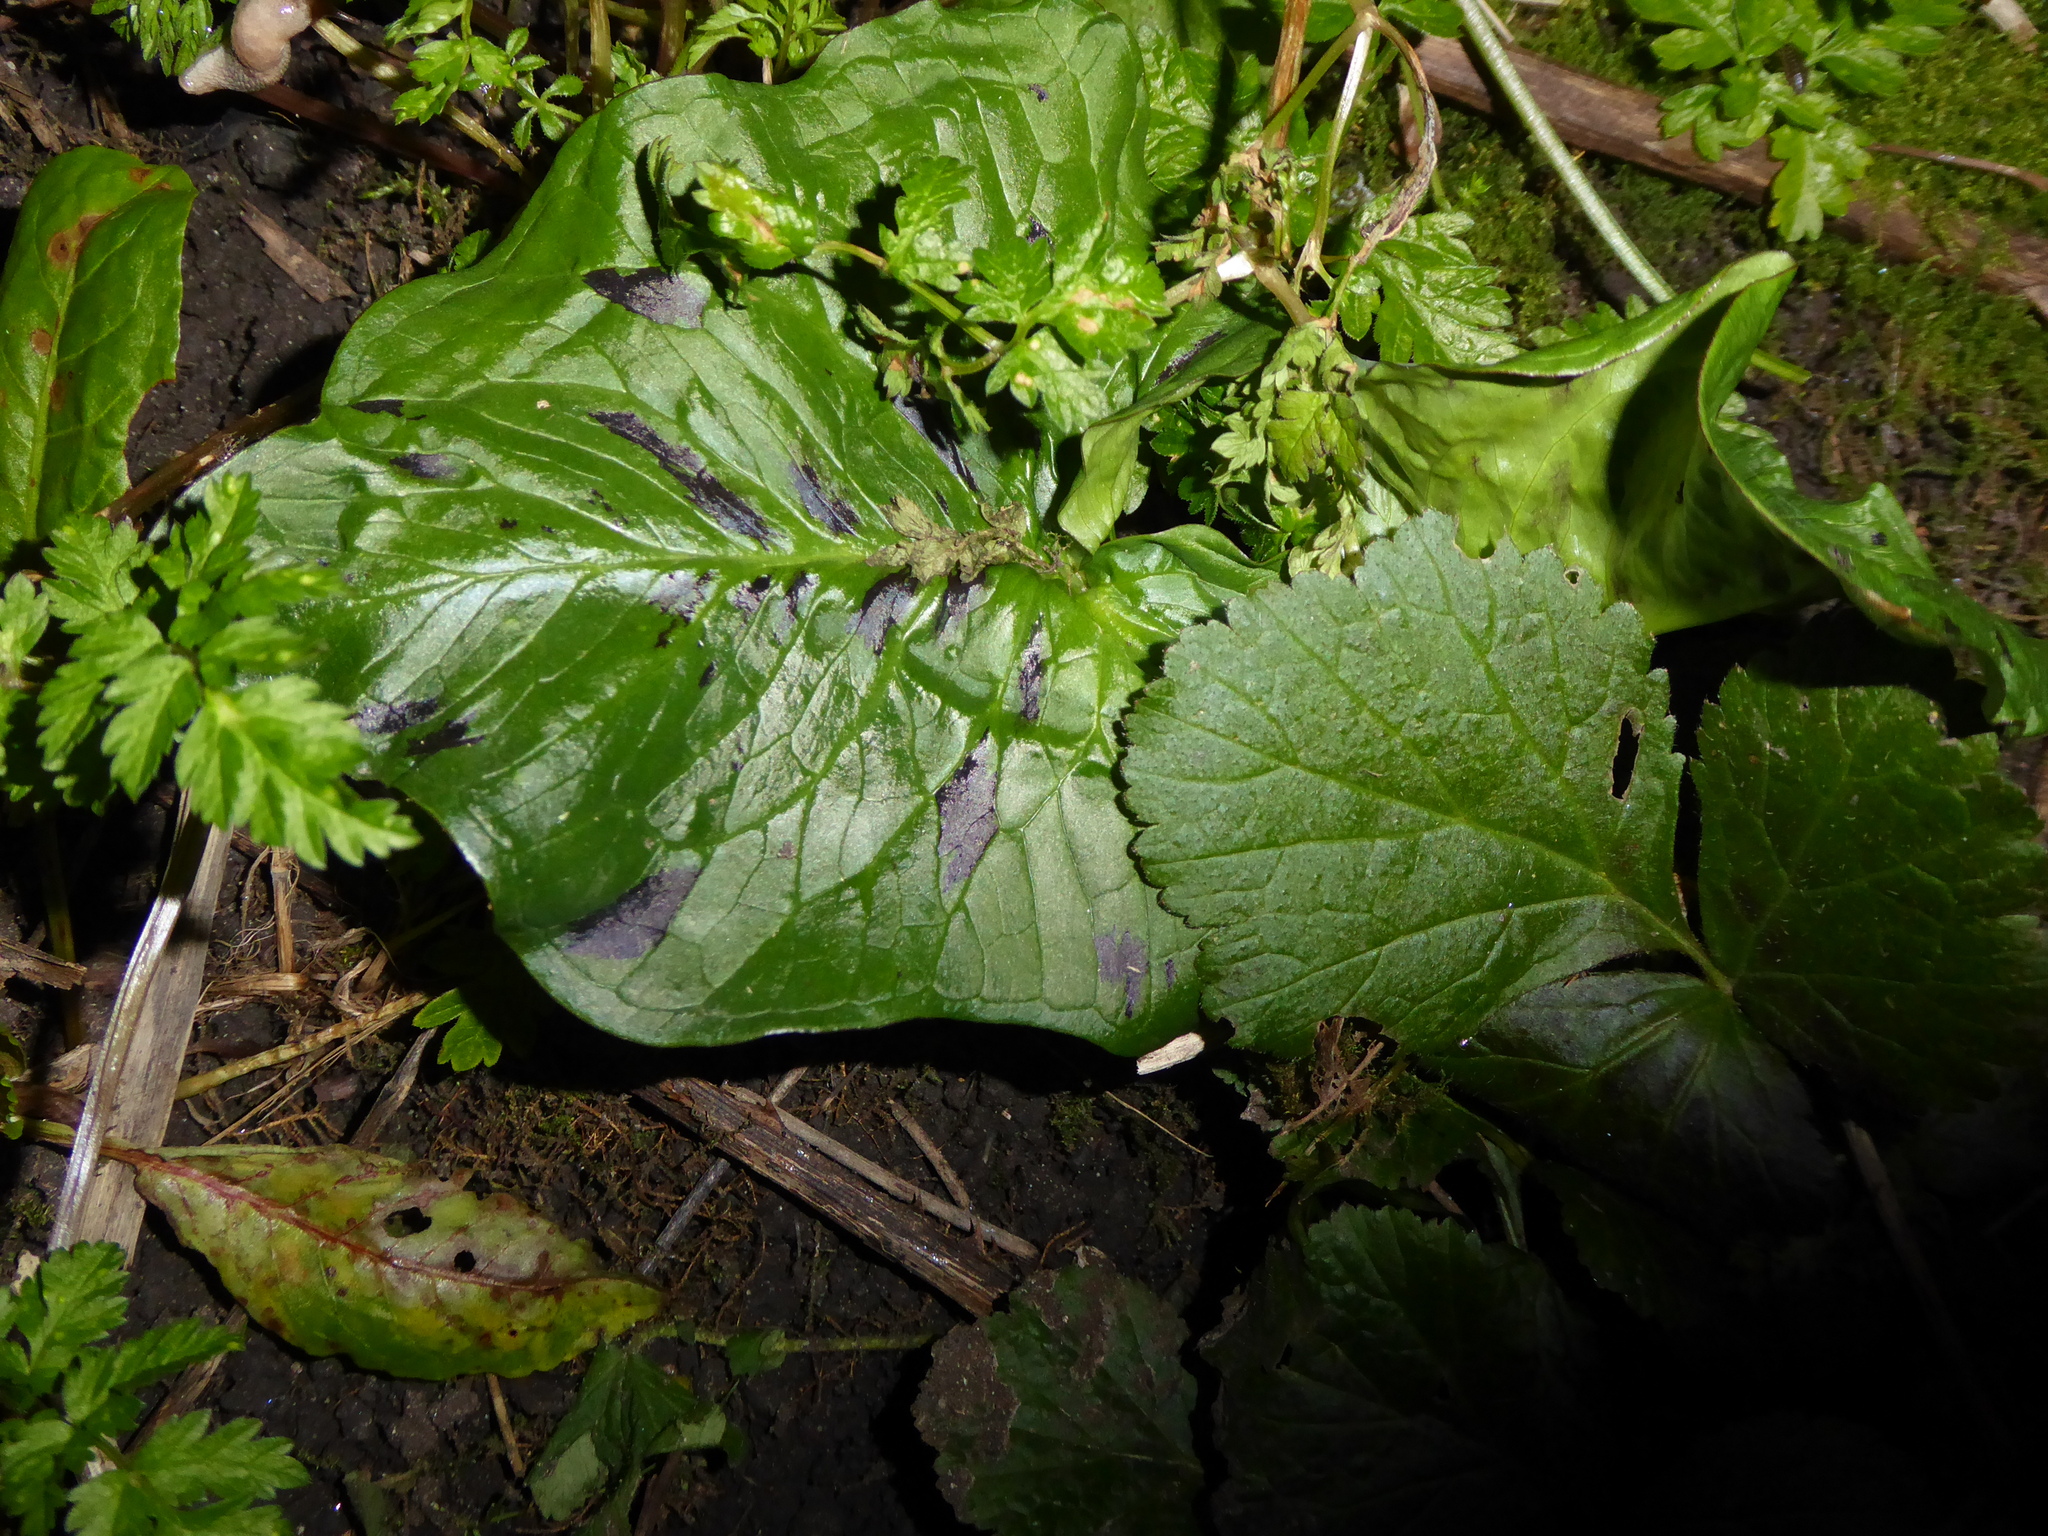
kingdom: Plantae
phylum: Tracheophyta
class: Liliopsida
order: Alismatales
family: Araceae
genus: Arum
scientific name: Arum maculatum
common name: Lords-and-ladies
